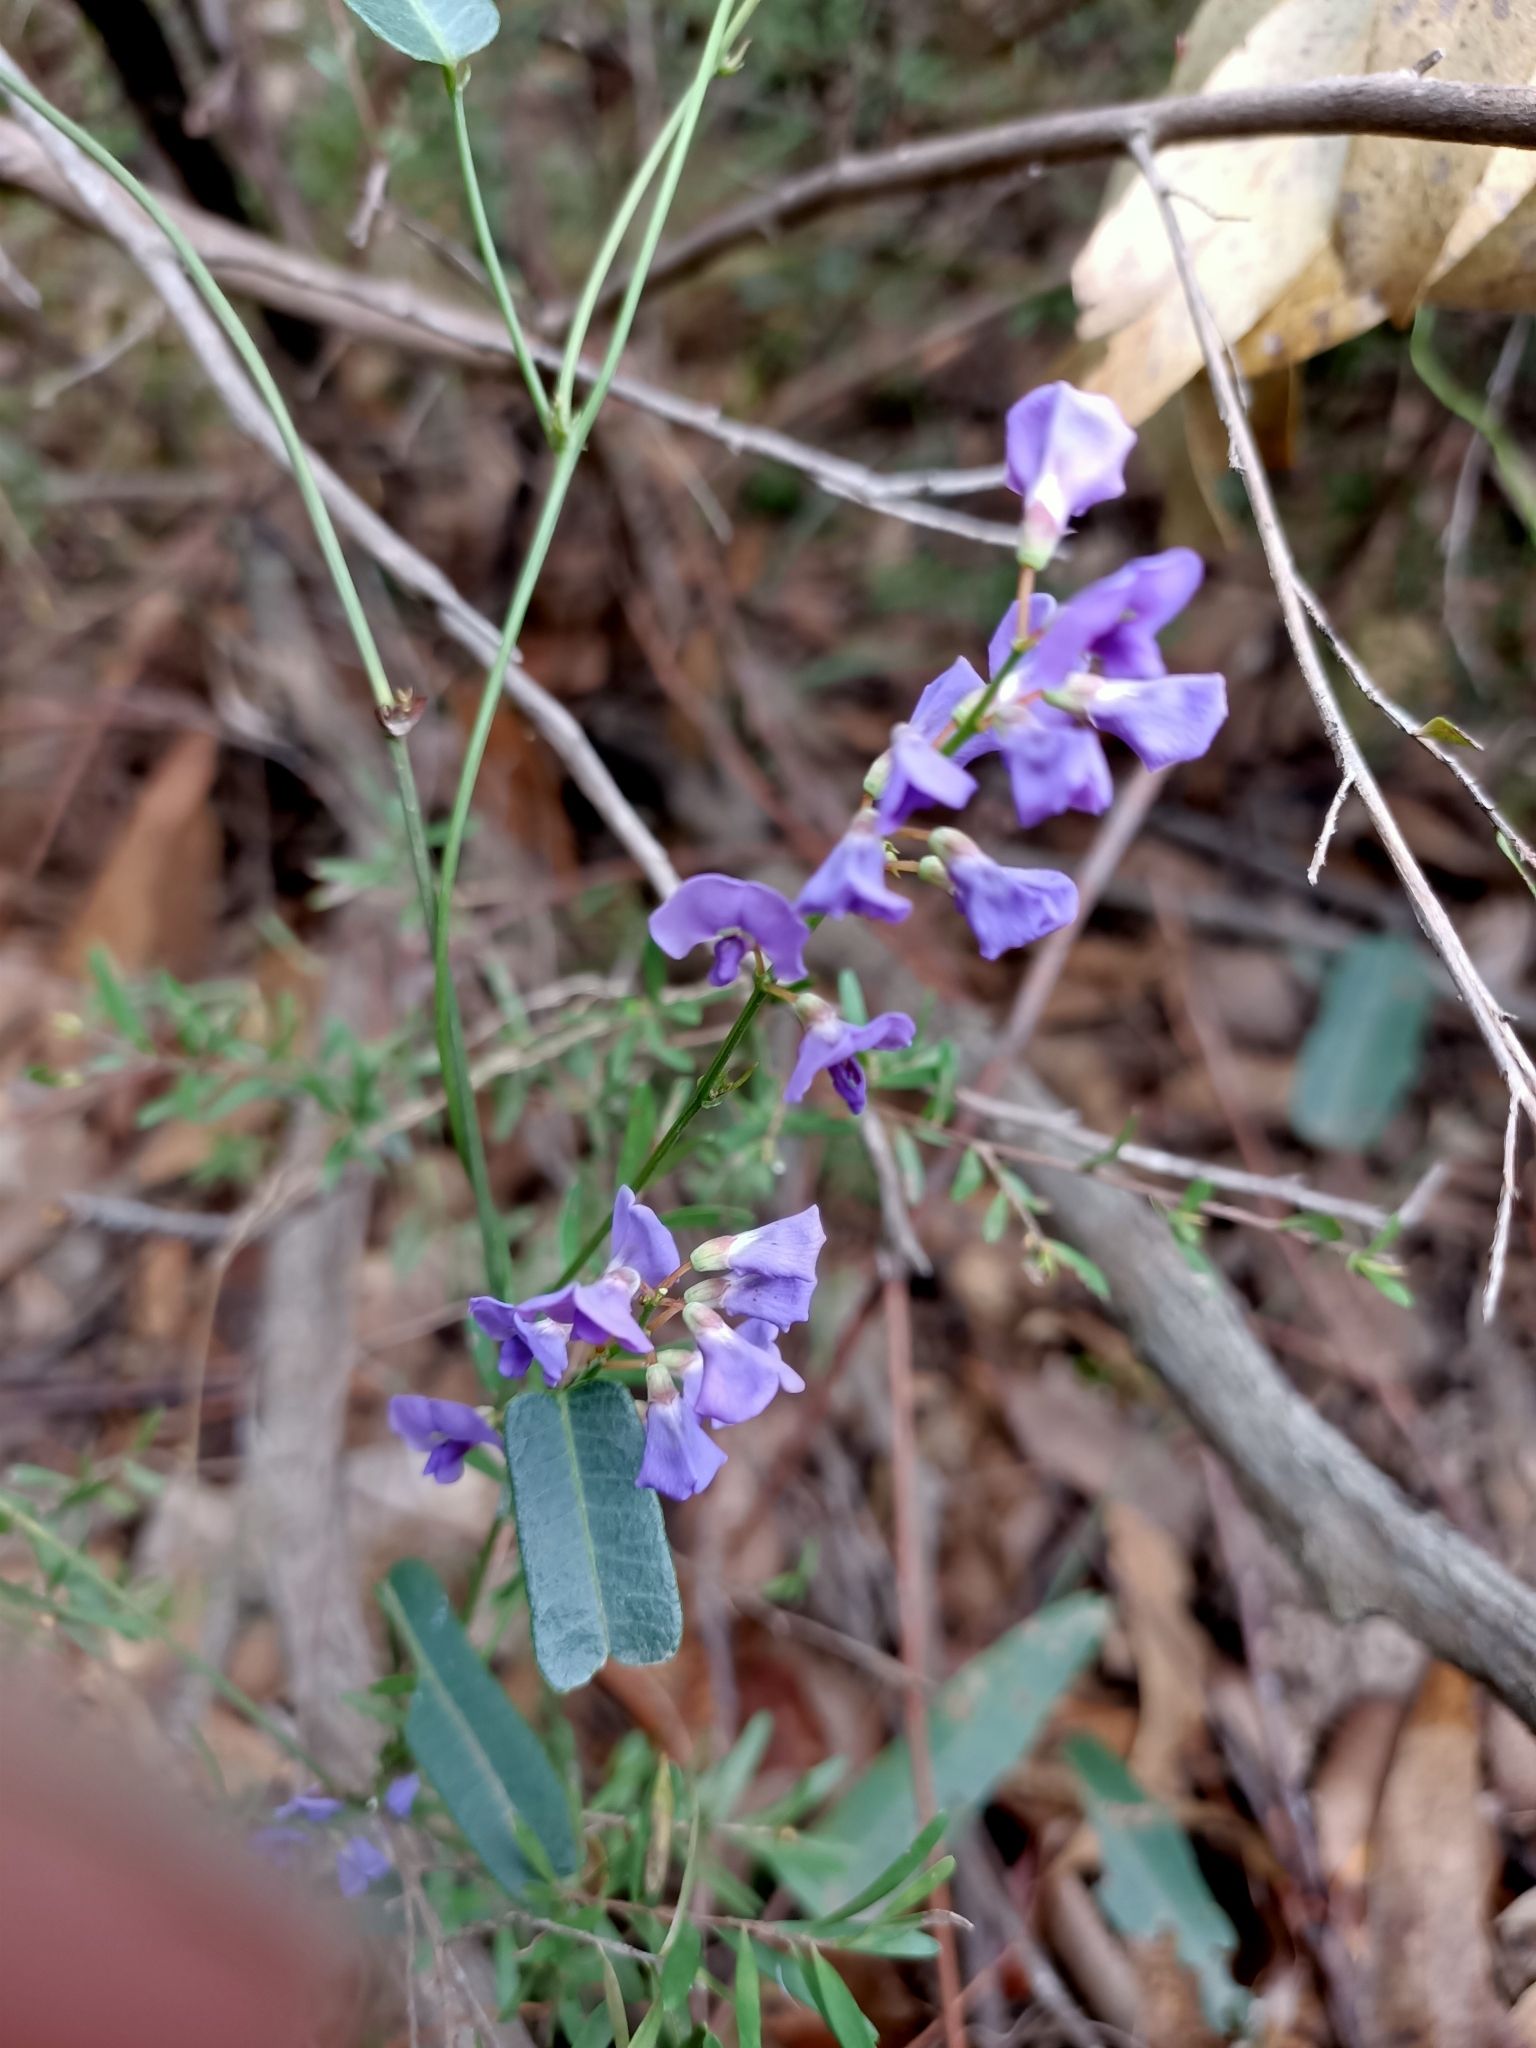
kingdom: Plantae
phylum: Tracheophyta
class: Magnoliopsida
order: Fabales
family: Fabaceae
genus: Hardenbergia
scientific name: Hardenbergia violacea
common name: Coral-pea
